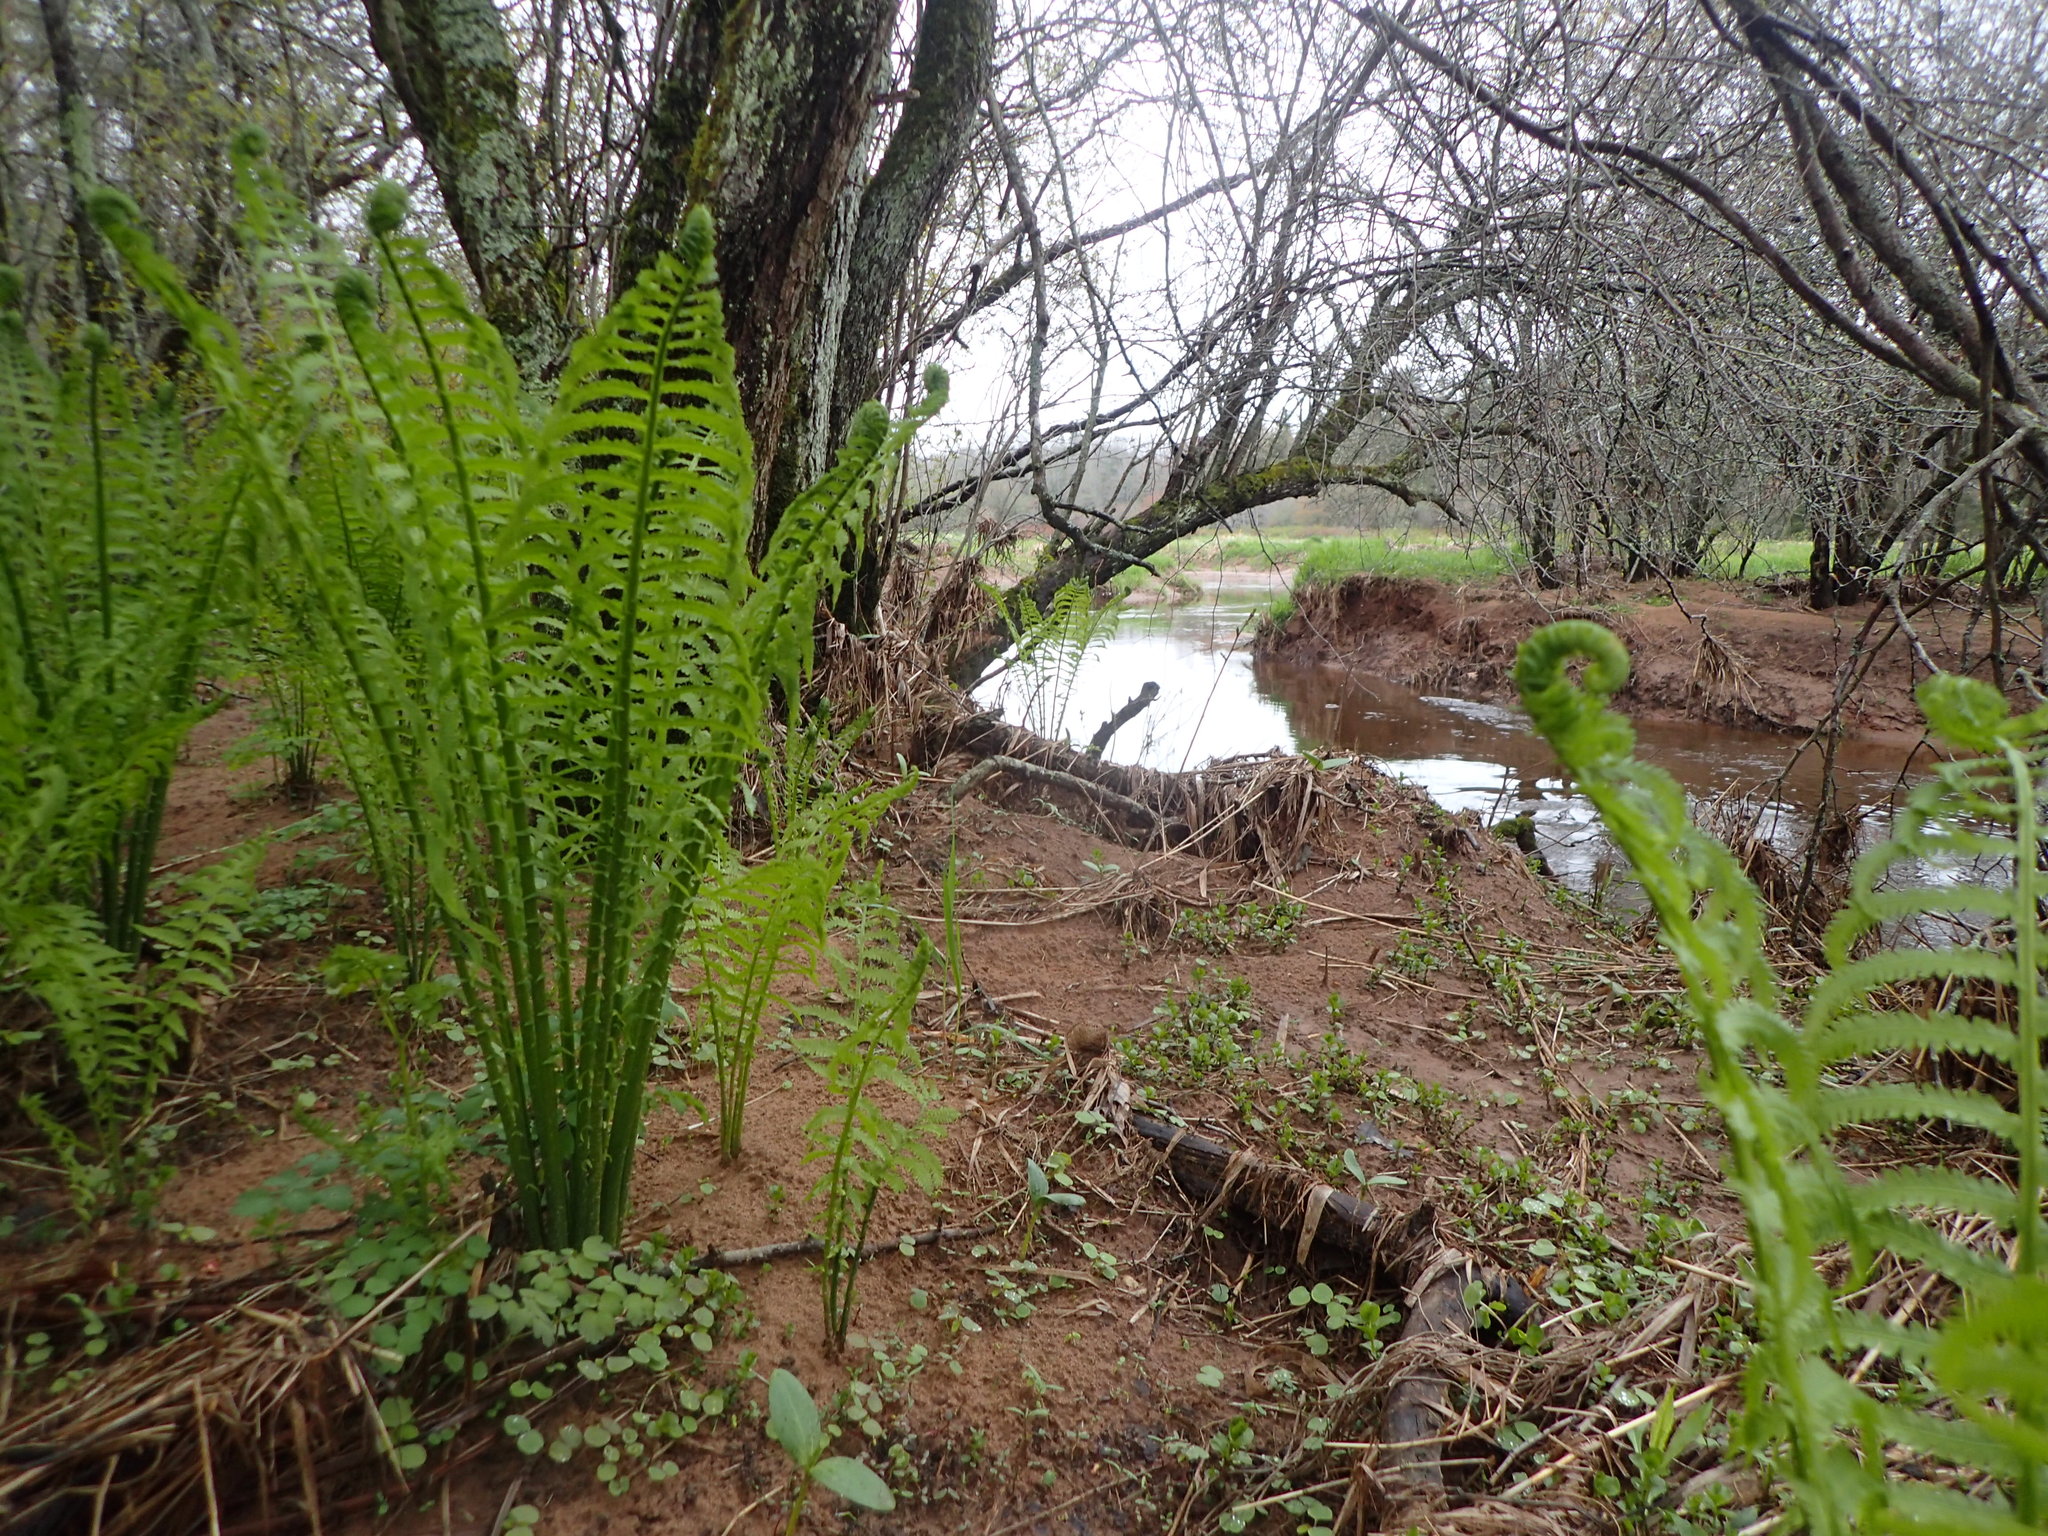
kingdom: Plantae
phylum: Tracheophyta
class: Polypodiopsida
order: Polypodiales
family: Onocleaceae
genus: Matteuccia
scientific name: Matteuccia struthiopteris
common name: Ostrich fern
